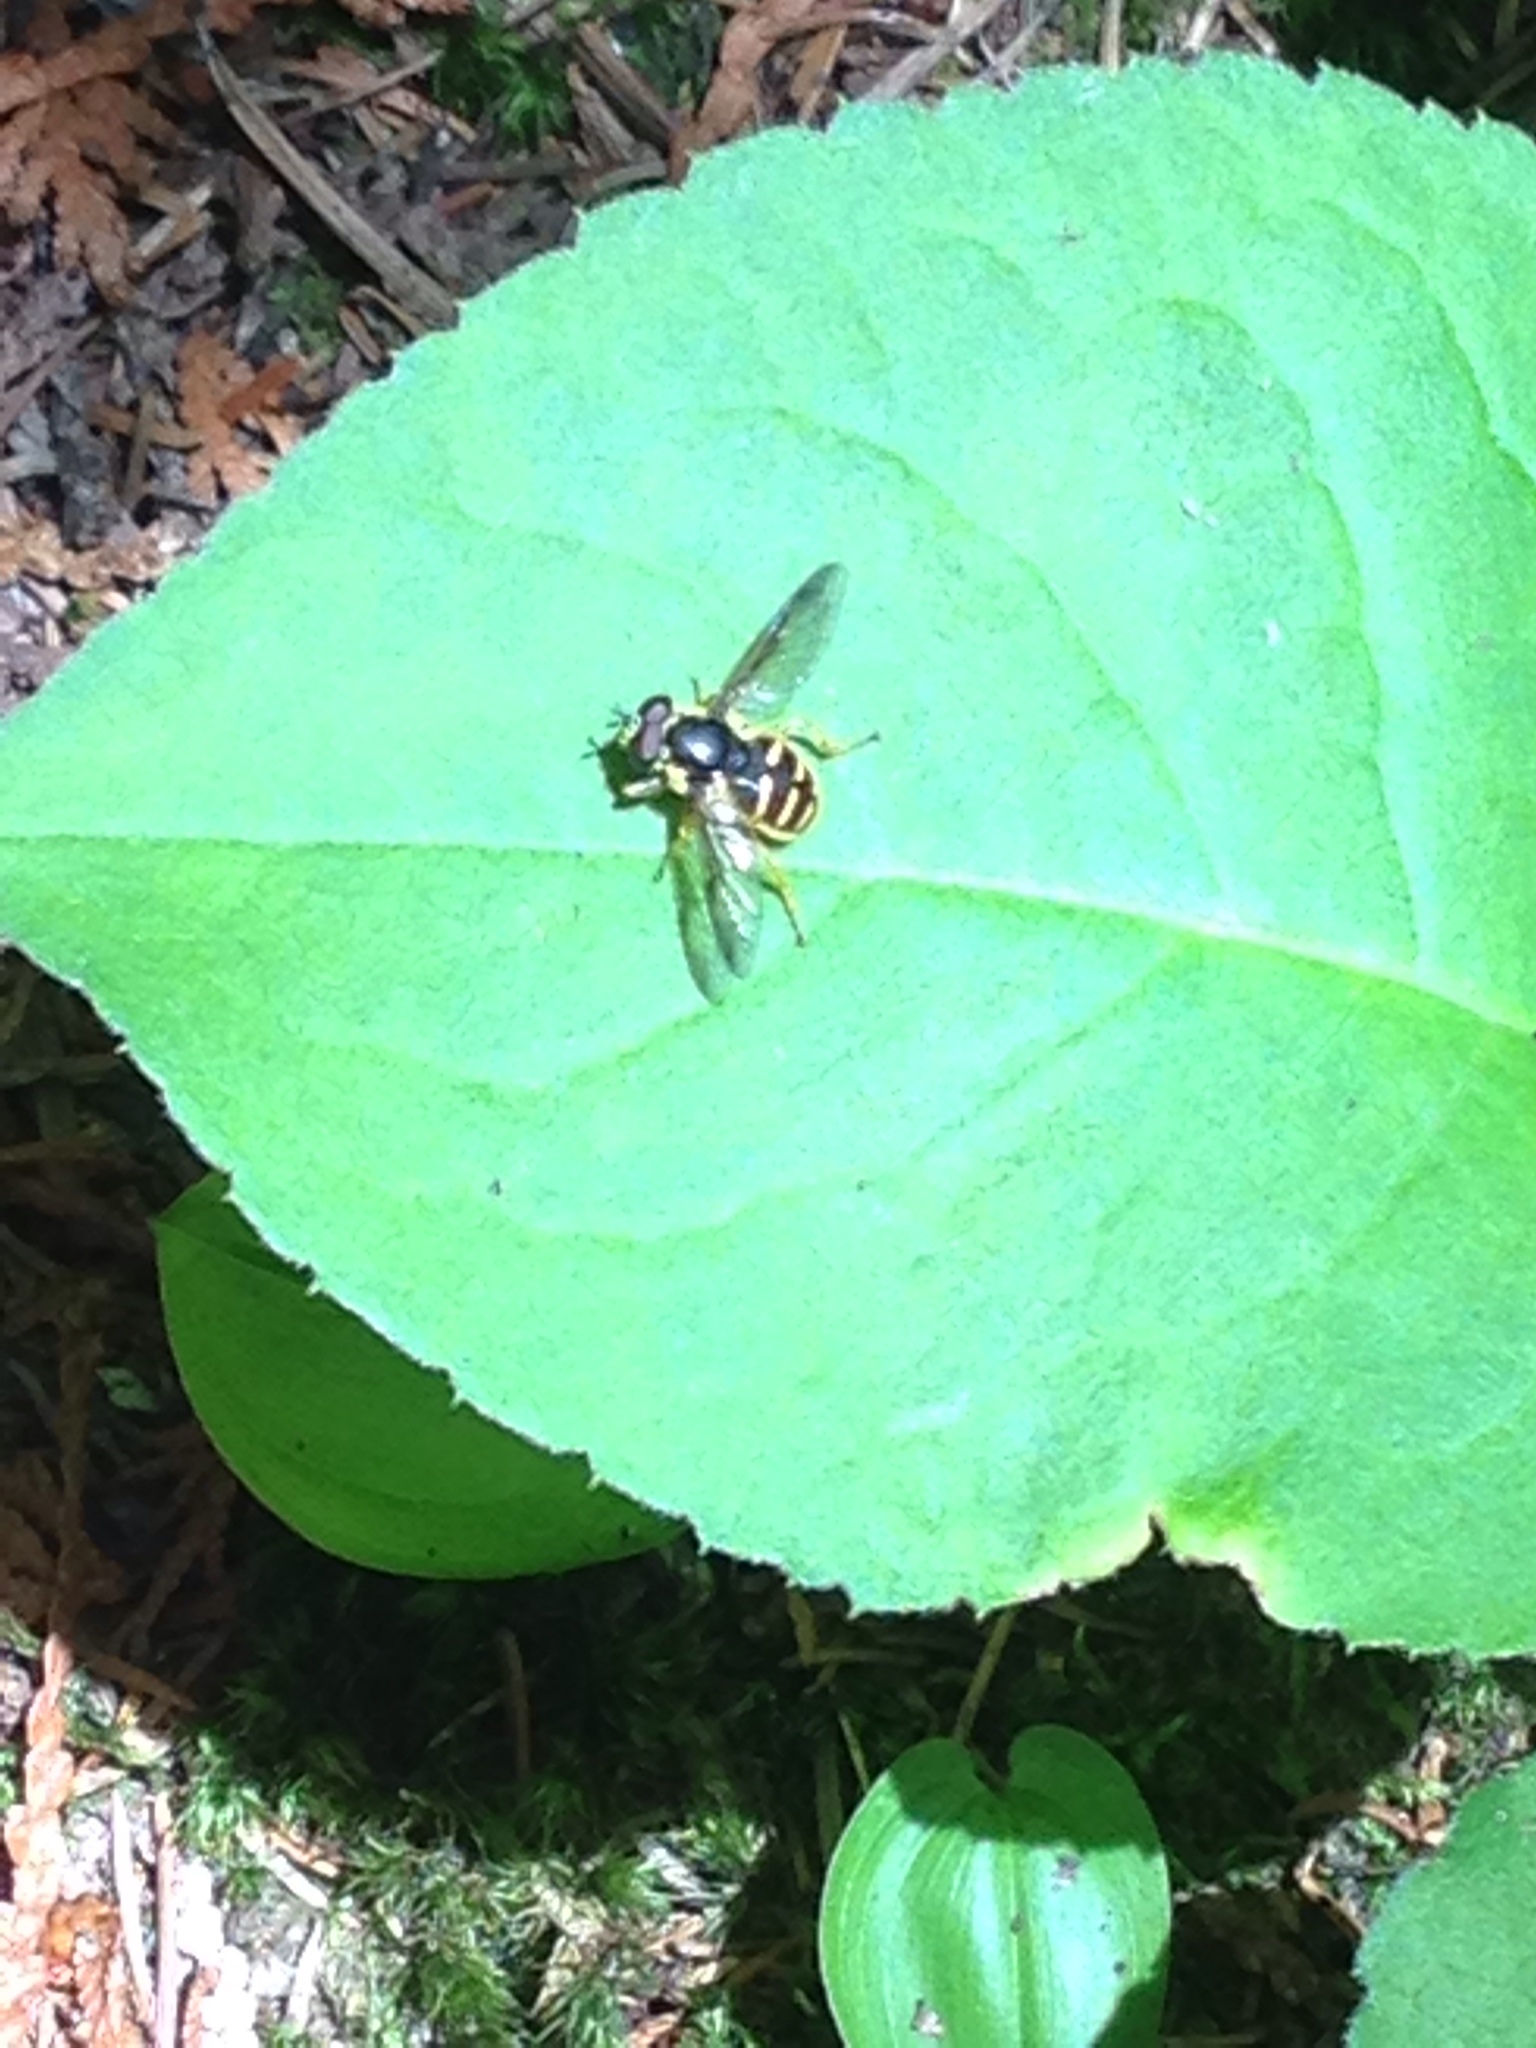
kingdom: Animalia
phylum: Arthropoda
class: Insecta
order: Diptera
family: Syrphidae
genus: Sericomyia
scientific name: Sericomyia chrysotoxoides
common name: Oblique-banded pond fly
